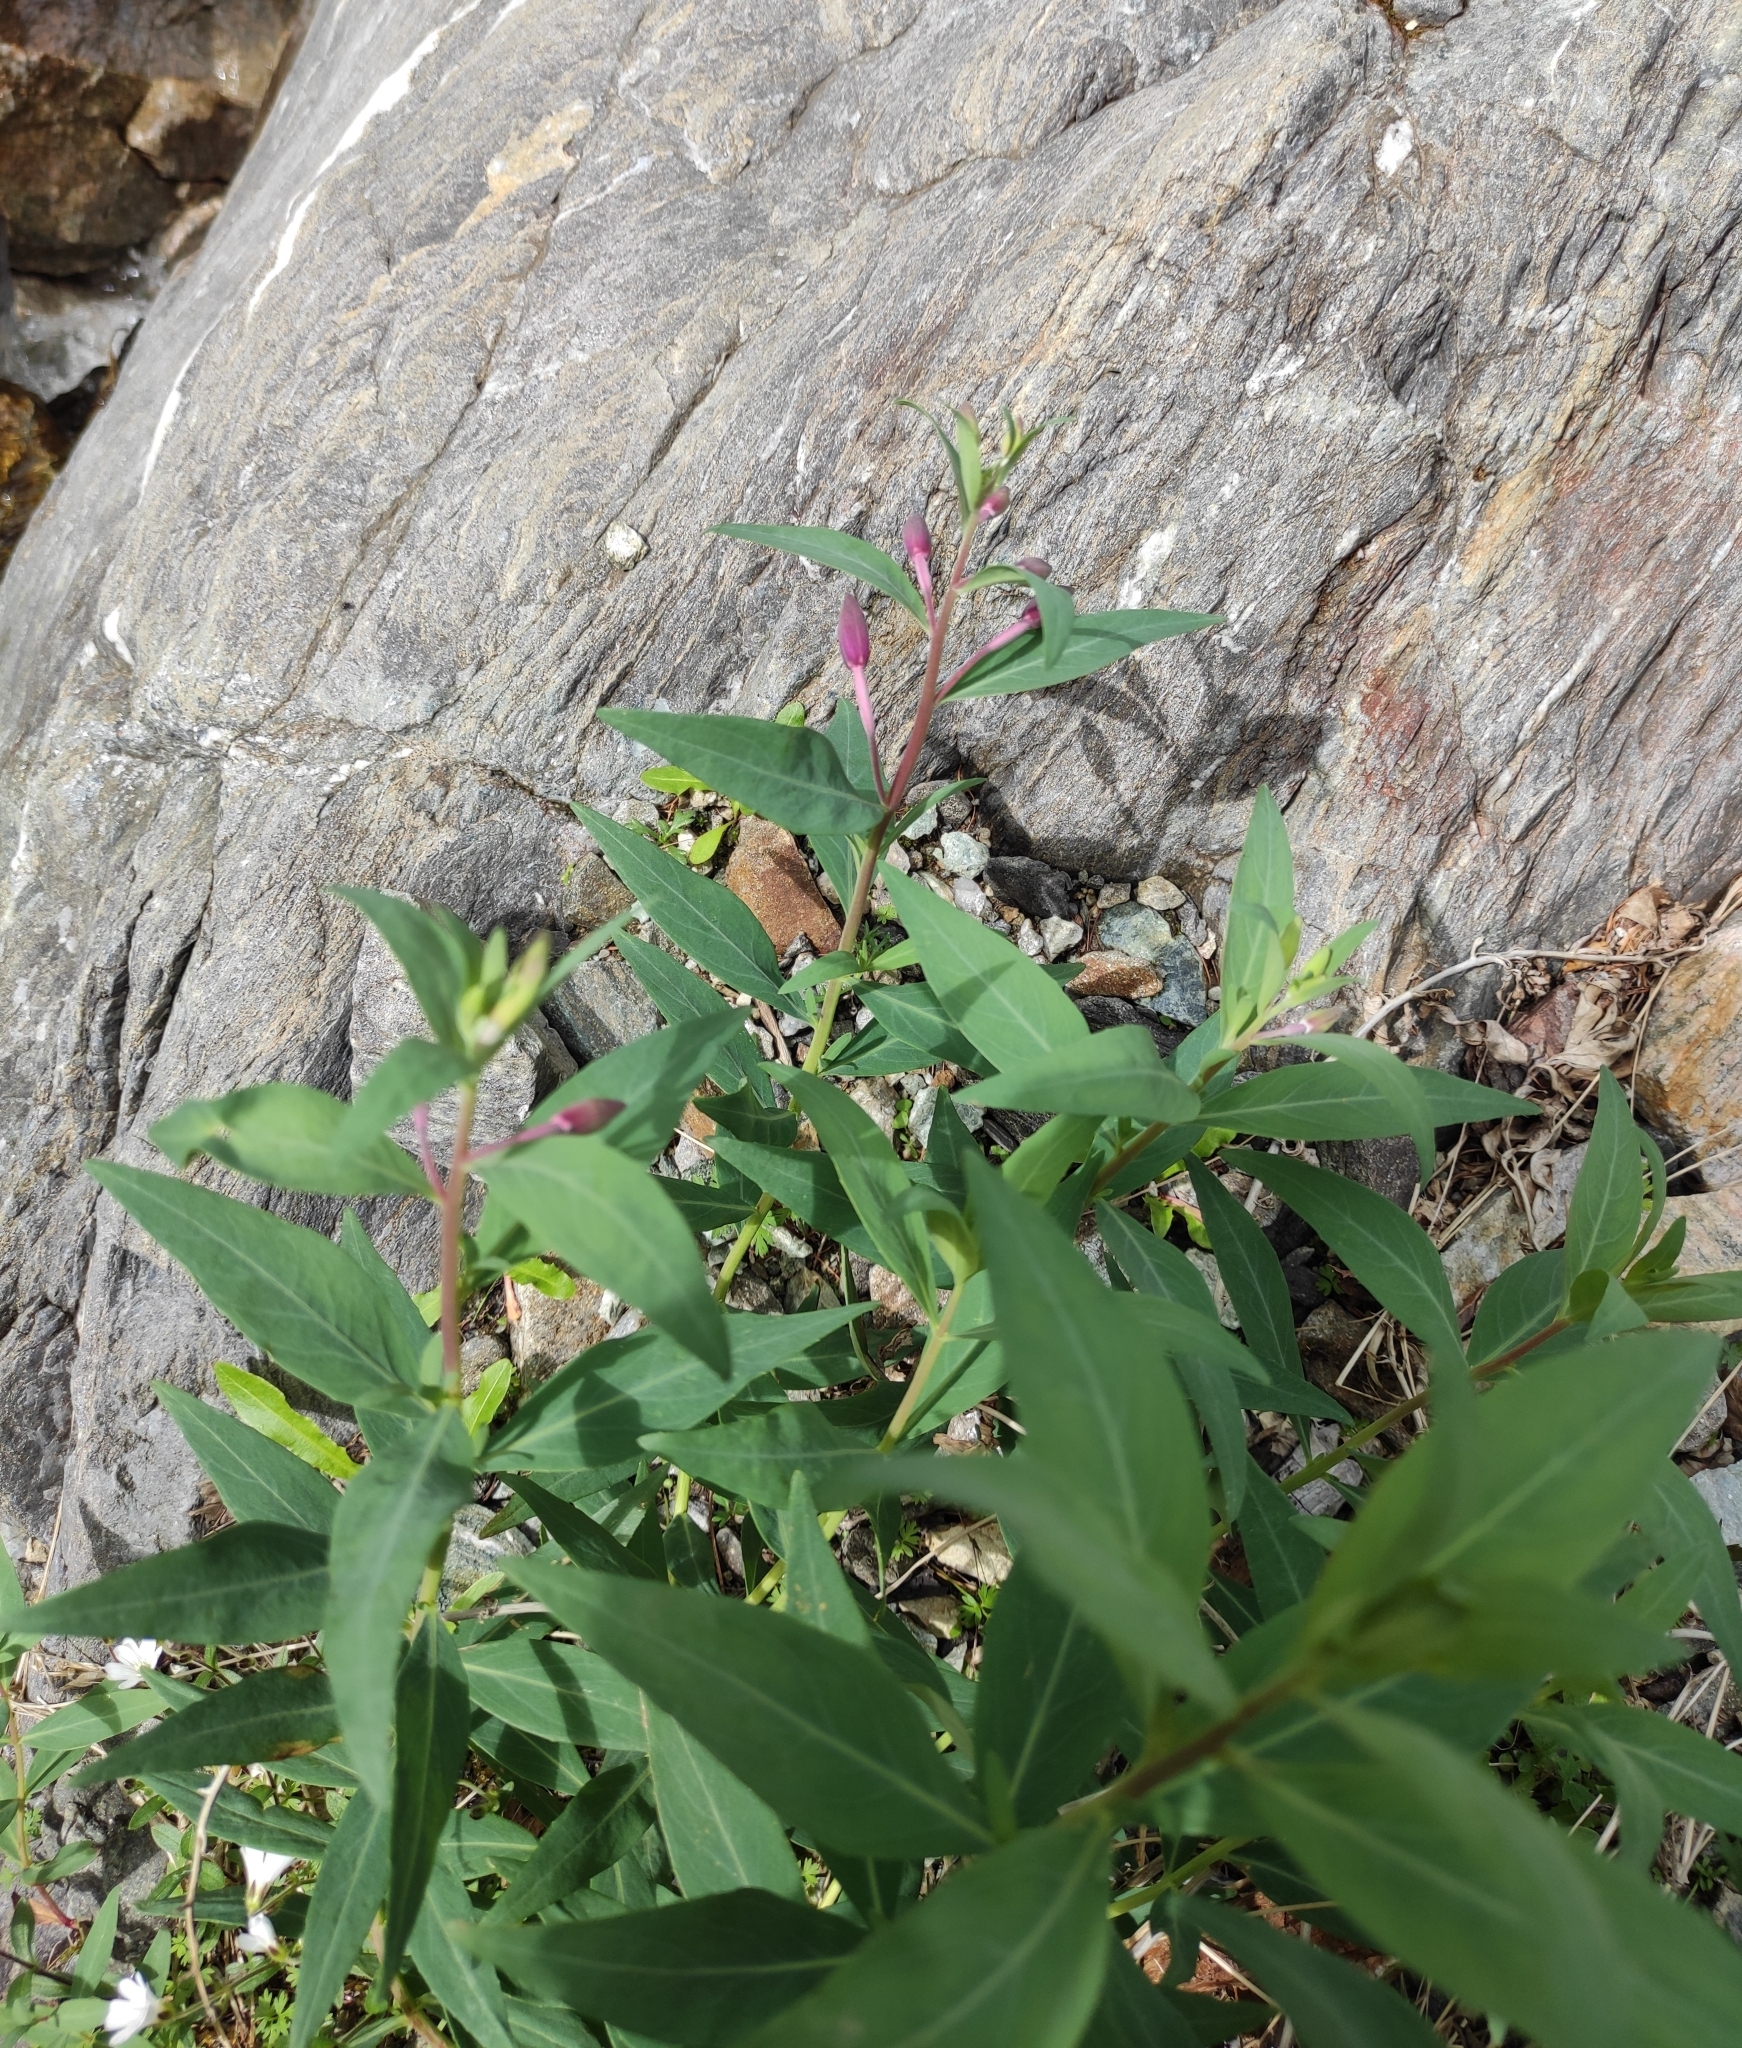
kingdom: Plantae
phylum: Tracheophyta
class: Magnoliopsida
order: Myrtales
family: Onagraceae
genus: Chamaenerion
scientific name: Chamaenerion latifolium
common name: Dwarf fireweed
